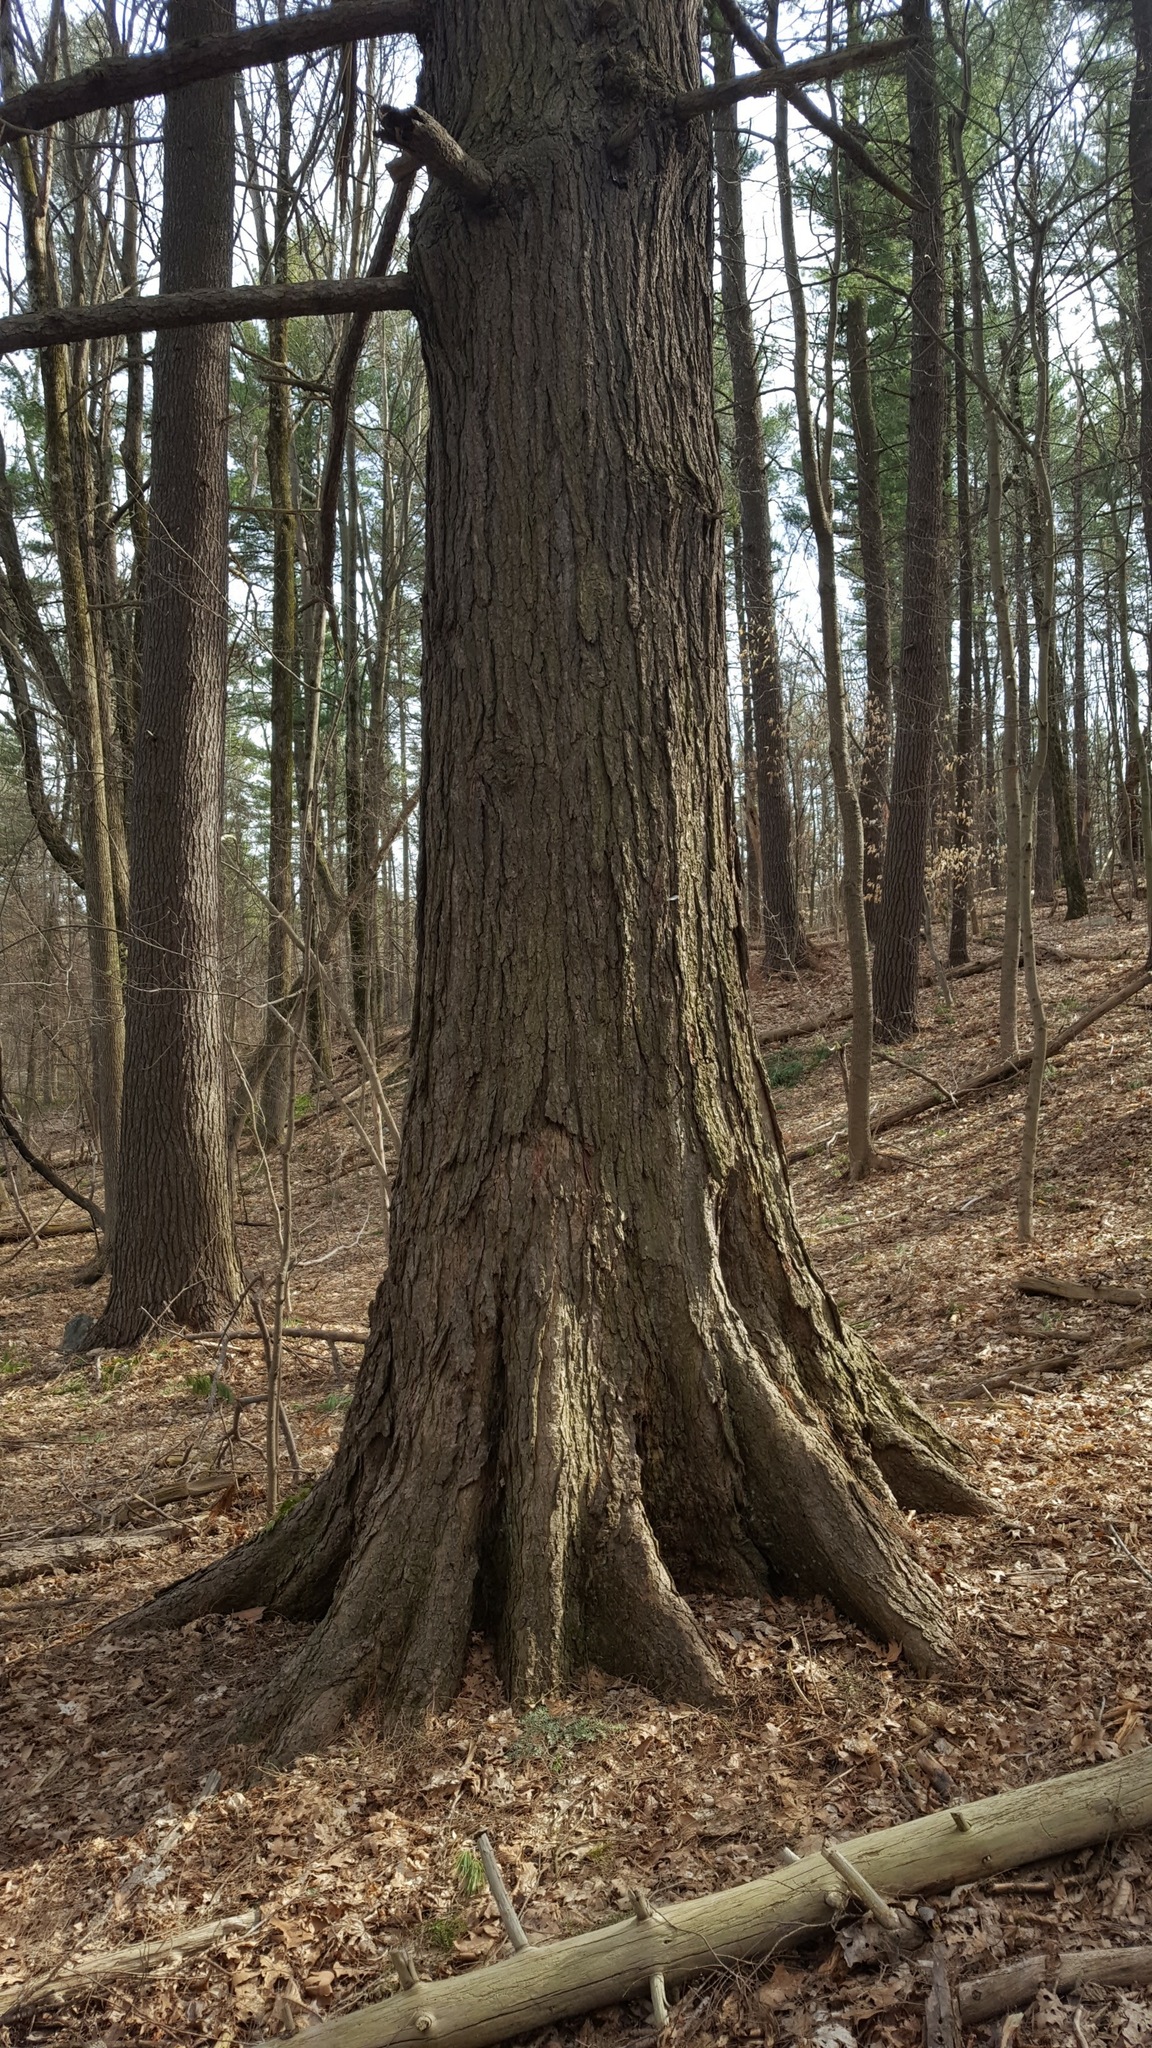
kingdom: Plantae
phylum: Tracheophyta
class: Pinopsida
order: Pinales
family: Pinaceae
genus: Tsuga
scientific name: Tsuga canadensis
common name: Eastern hemlock
